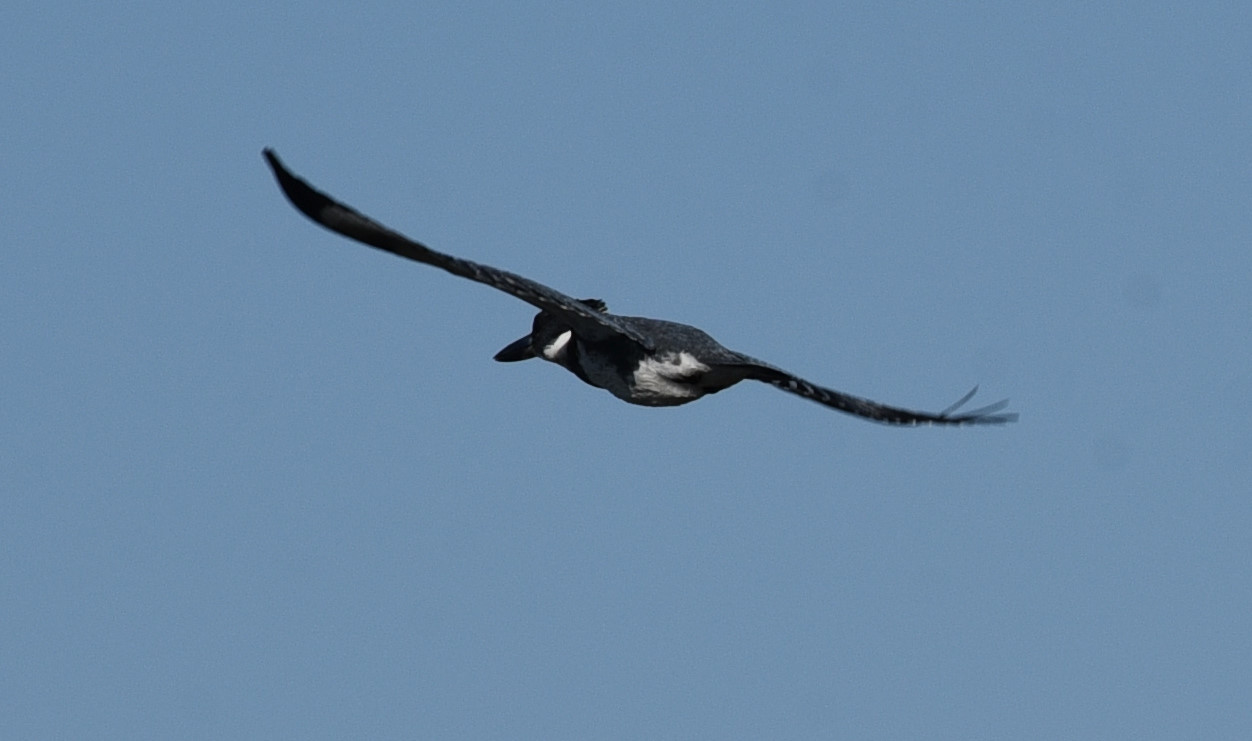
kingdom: Animalia
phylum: Chordata
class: Aves
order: Coraciiformes
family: Alcedinidae
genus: Megaceryle
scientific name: Megaceryle alcyon
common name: Belted kingfisher
